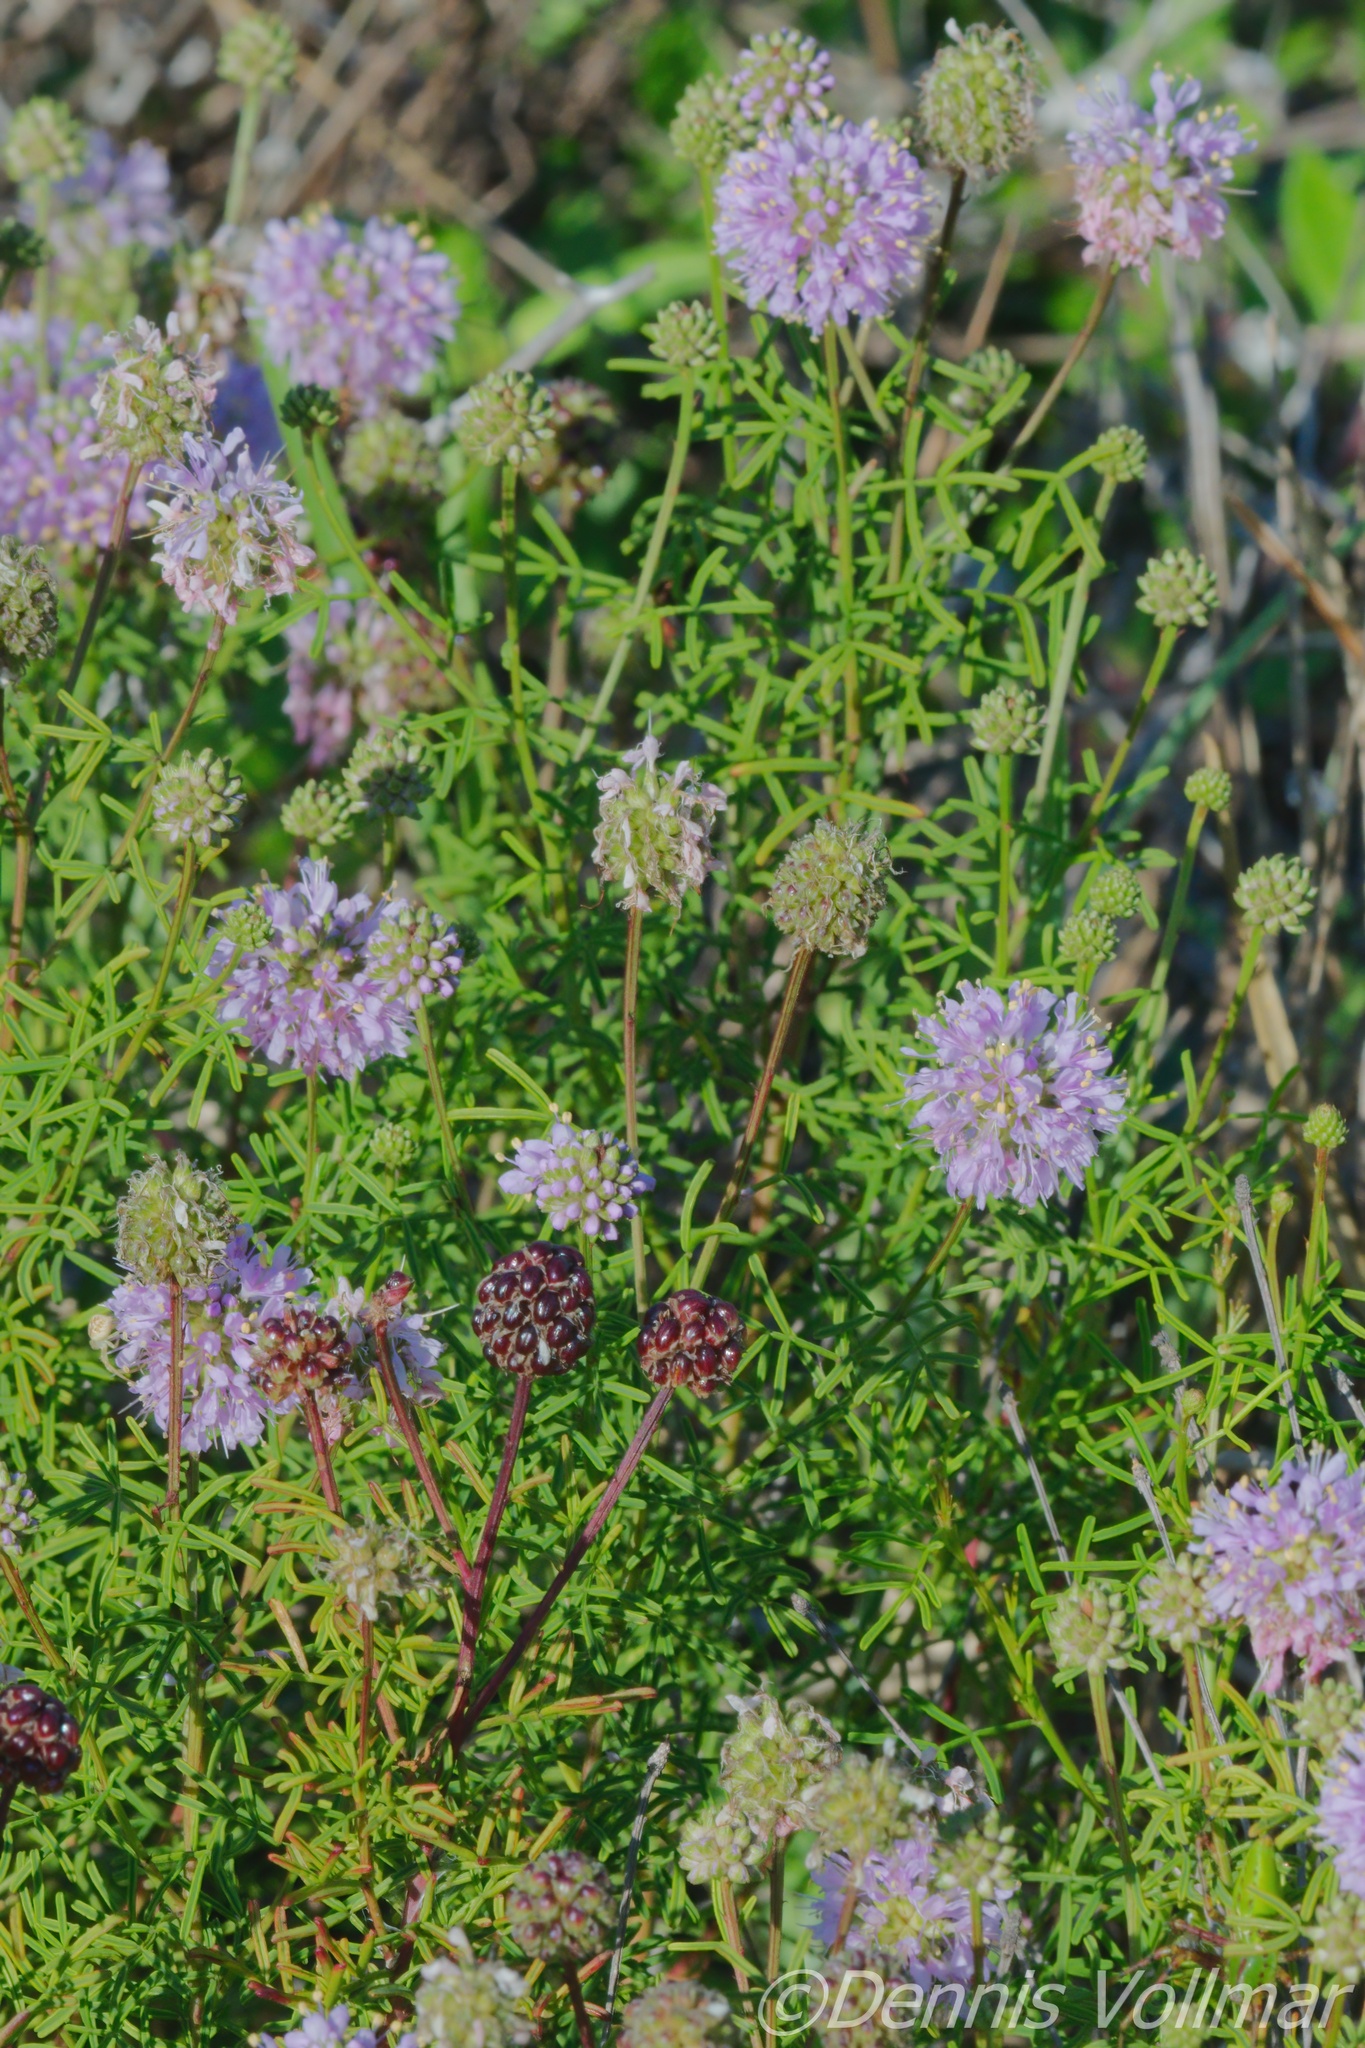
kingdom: Plantae
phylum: Tracheophyta
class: Magnoliopsida
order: Fabales
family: Fabaceae
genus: Dalea
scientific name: Dalea feayi
